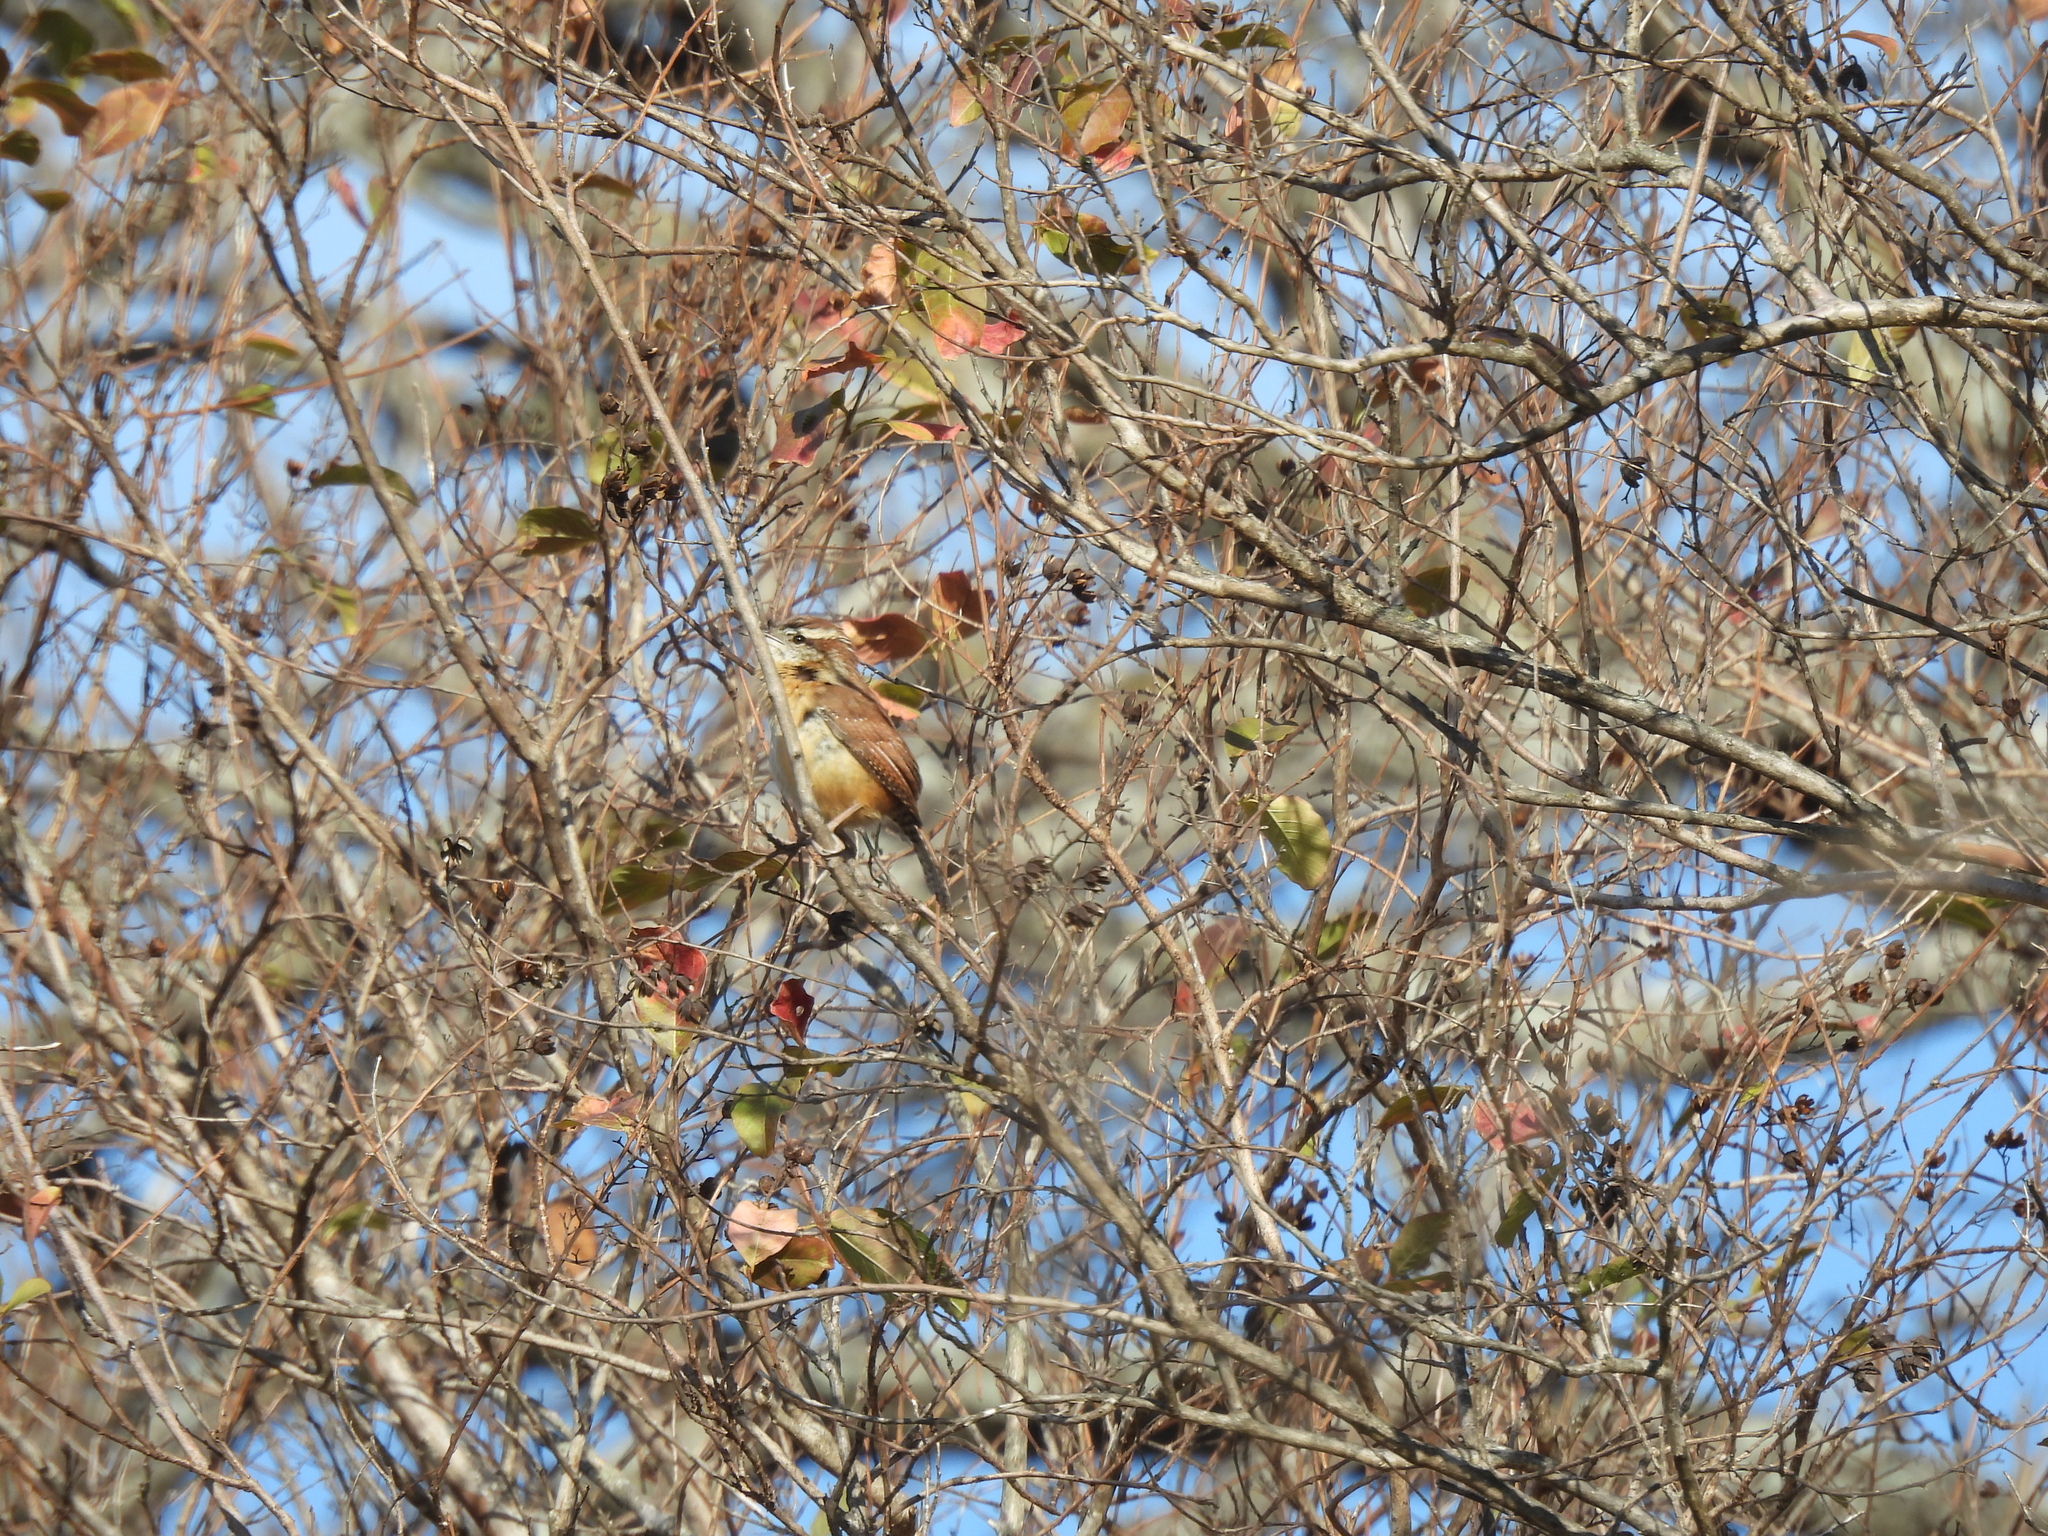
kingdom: Animalia
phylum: Chordata
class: Aves
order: Passeriformes
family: Troglodytidae
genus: Thryothorus
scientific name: Thryothorus ludovicianus
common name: Carolina wren
